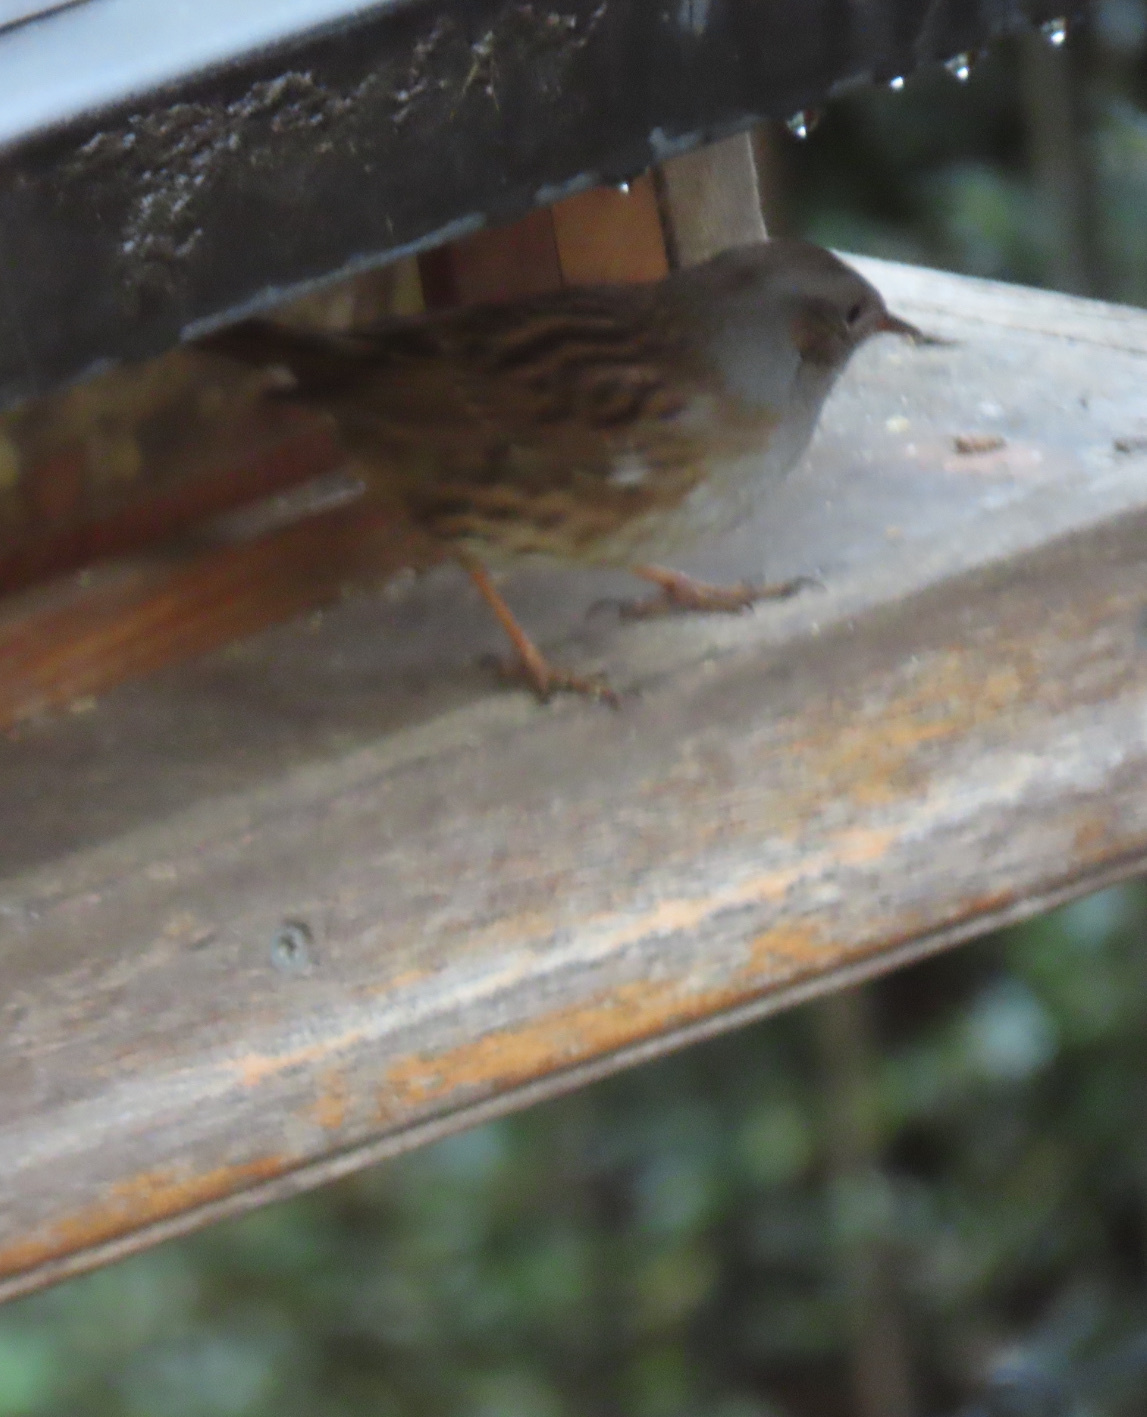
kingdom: Animalia
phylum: Chordata
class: Aves
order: Passeriformes
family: Prunellidae
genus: Prunella
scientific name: Prunella modularis
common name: Dunnock
